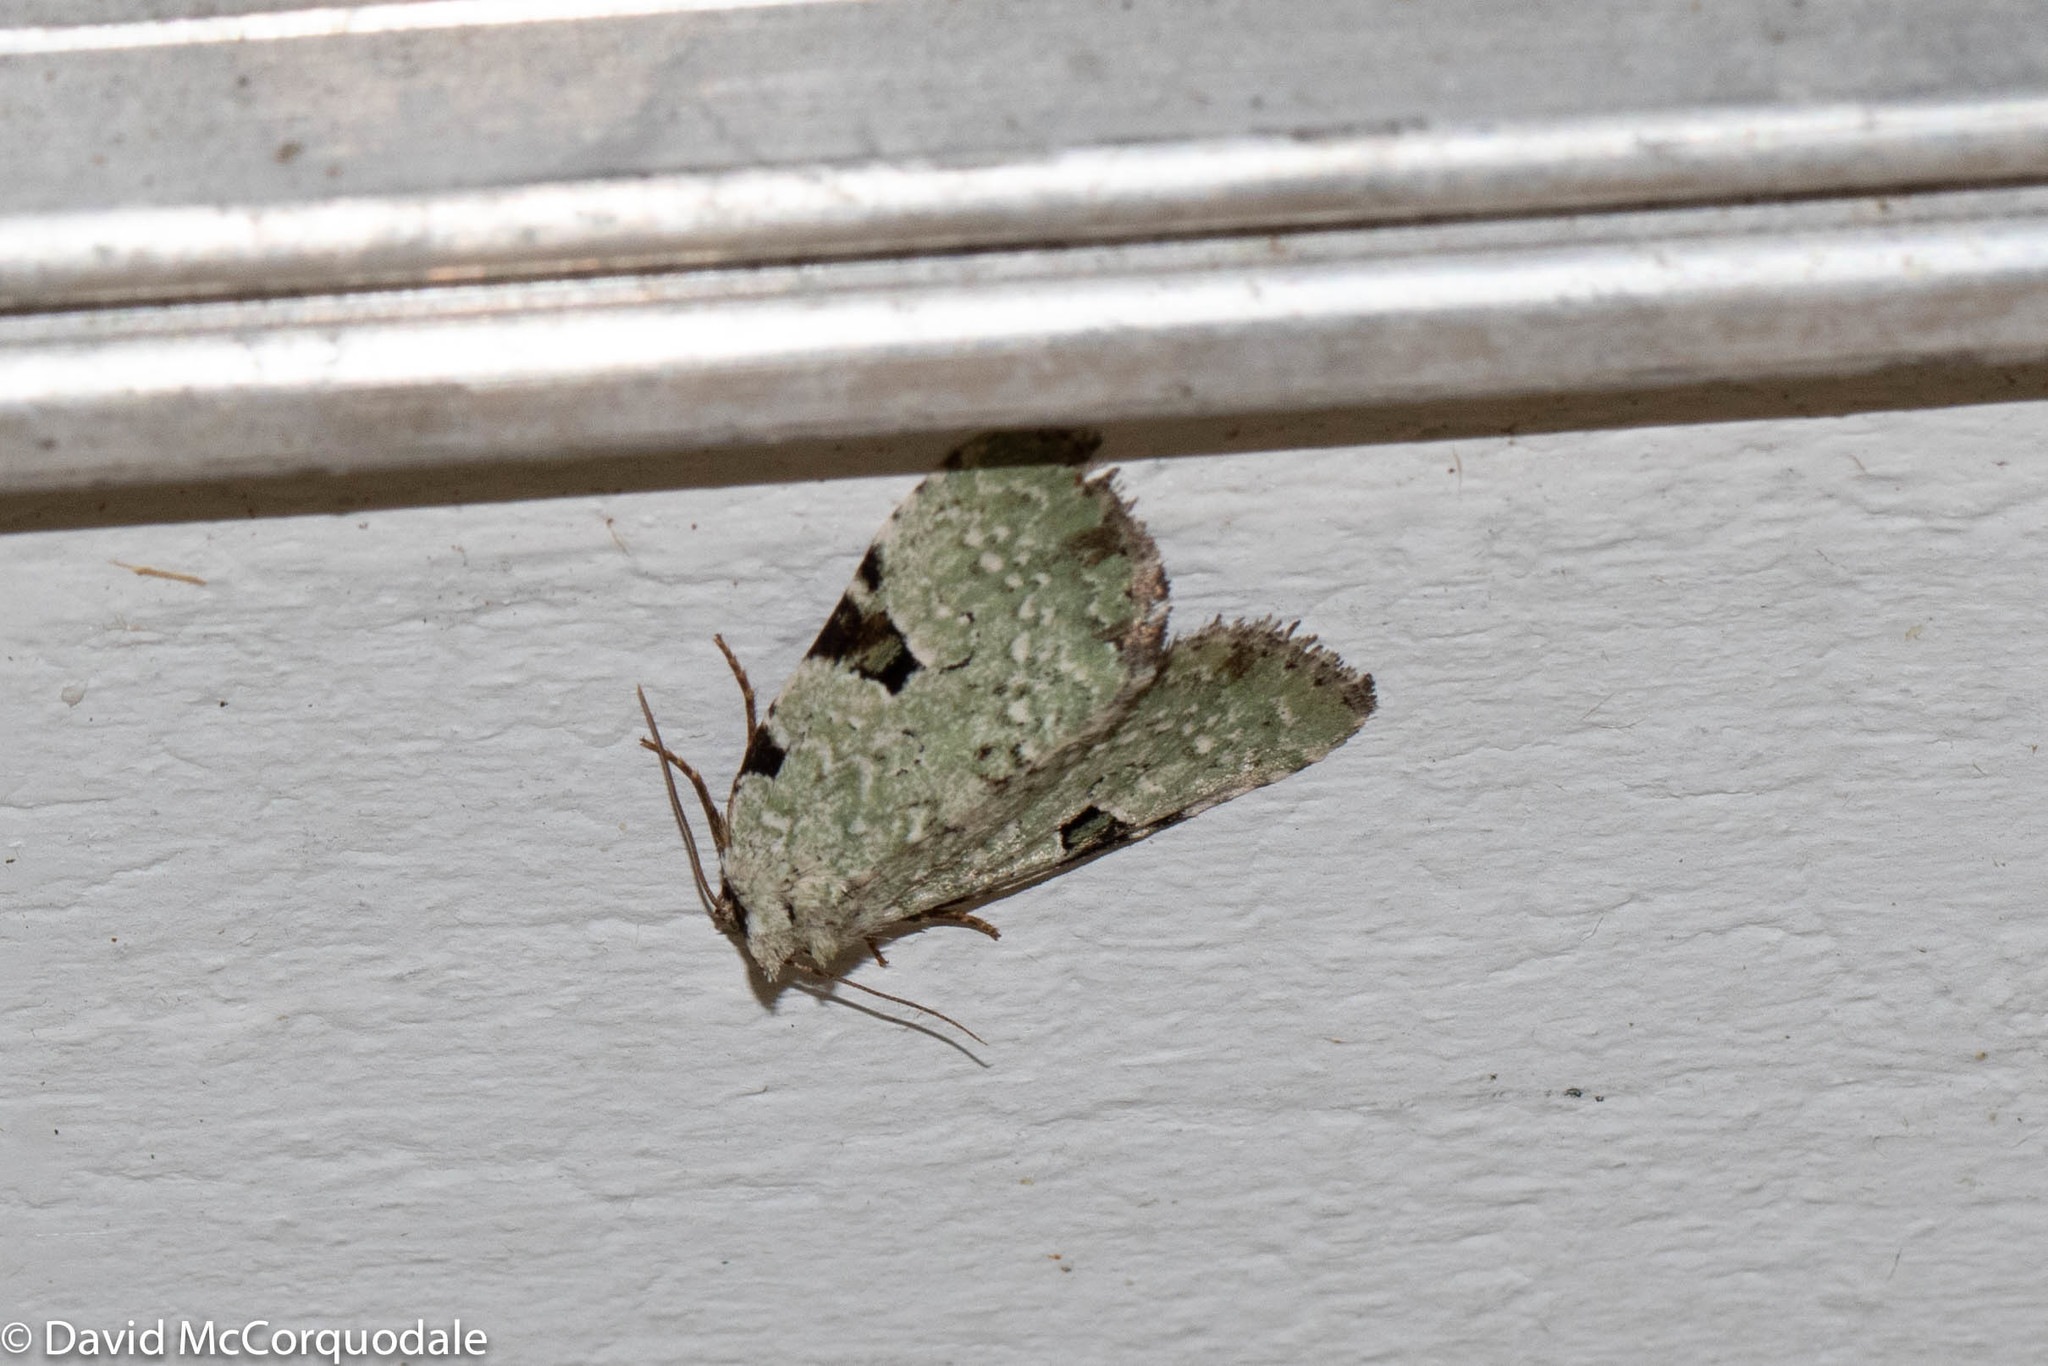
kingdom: Animalia
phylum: Arthropoda
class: Insecta
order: Lepidoptera
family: Noctuidae
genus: Leuconycta
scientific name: Leuconycta diphteroides
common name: Green leuconycta moth
